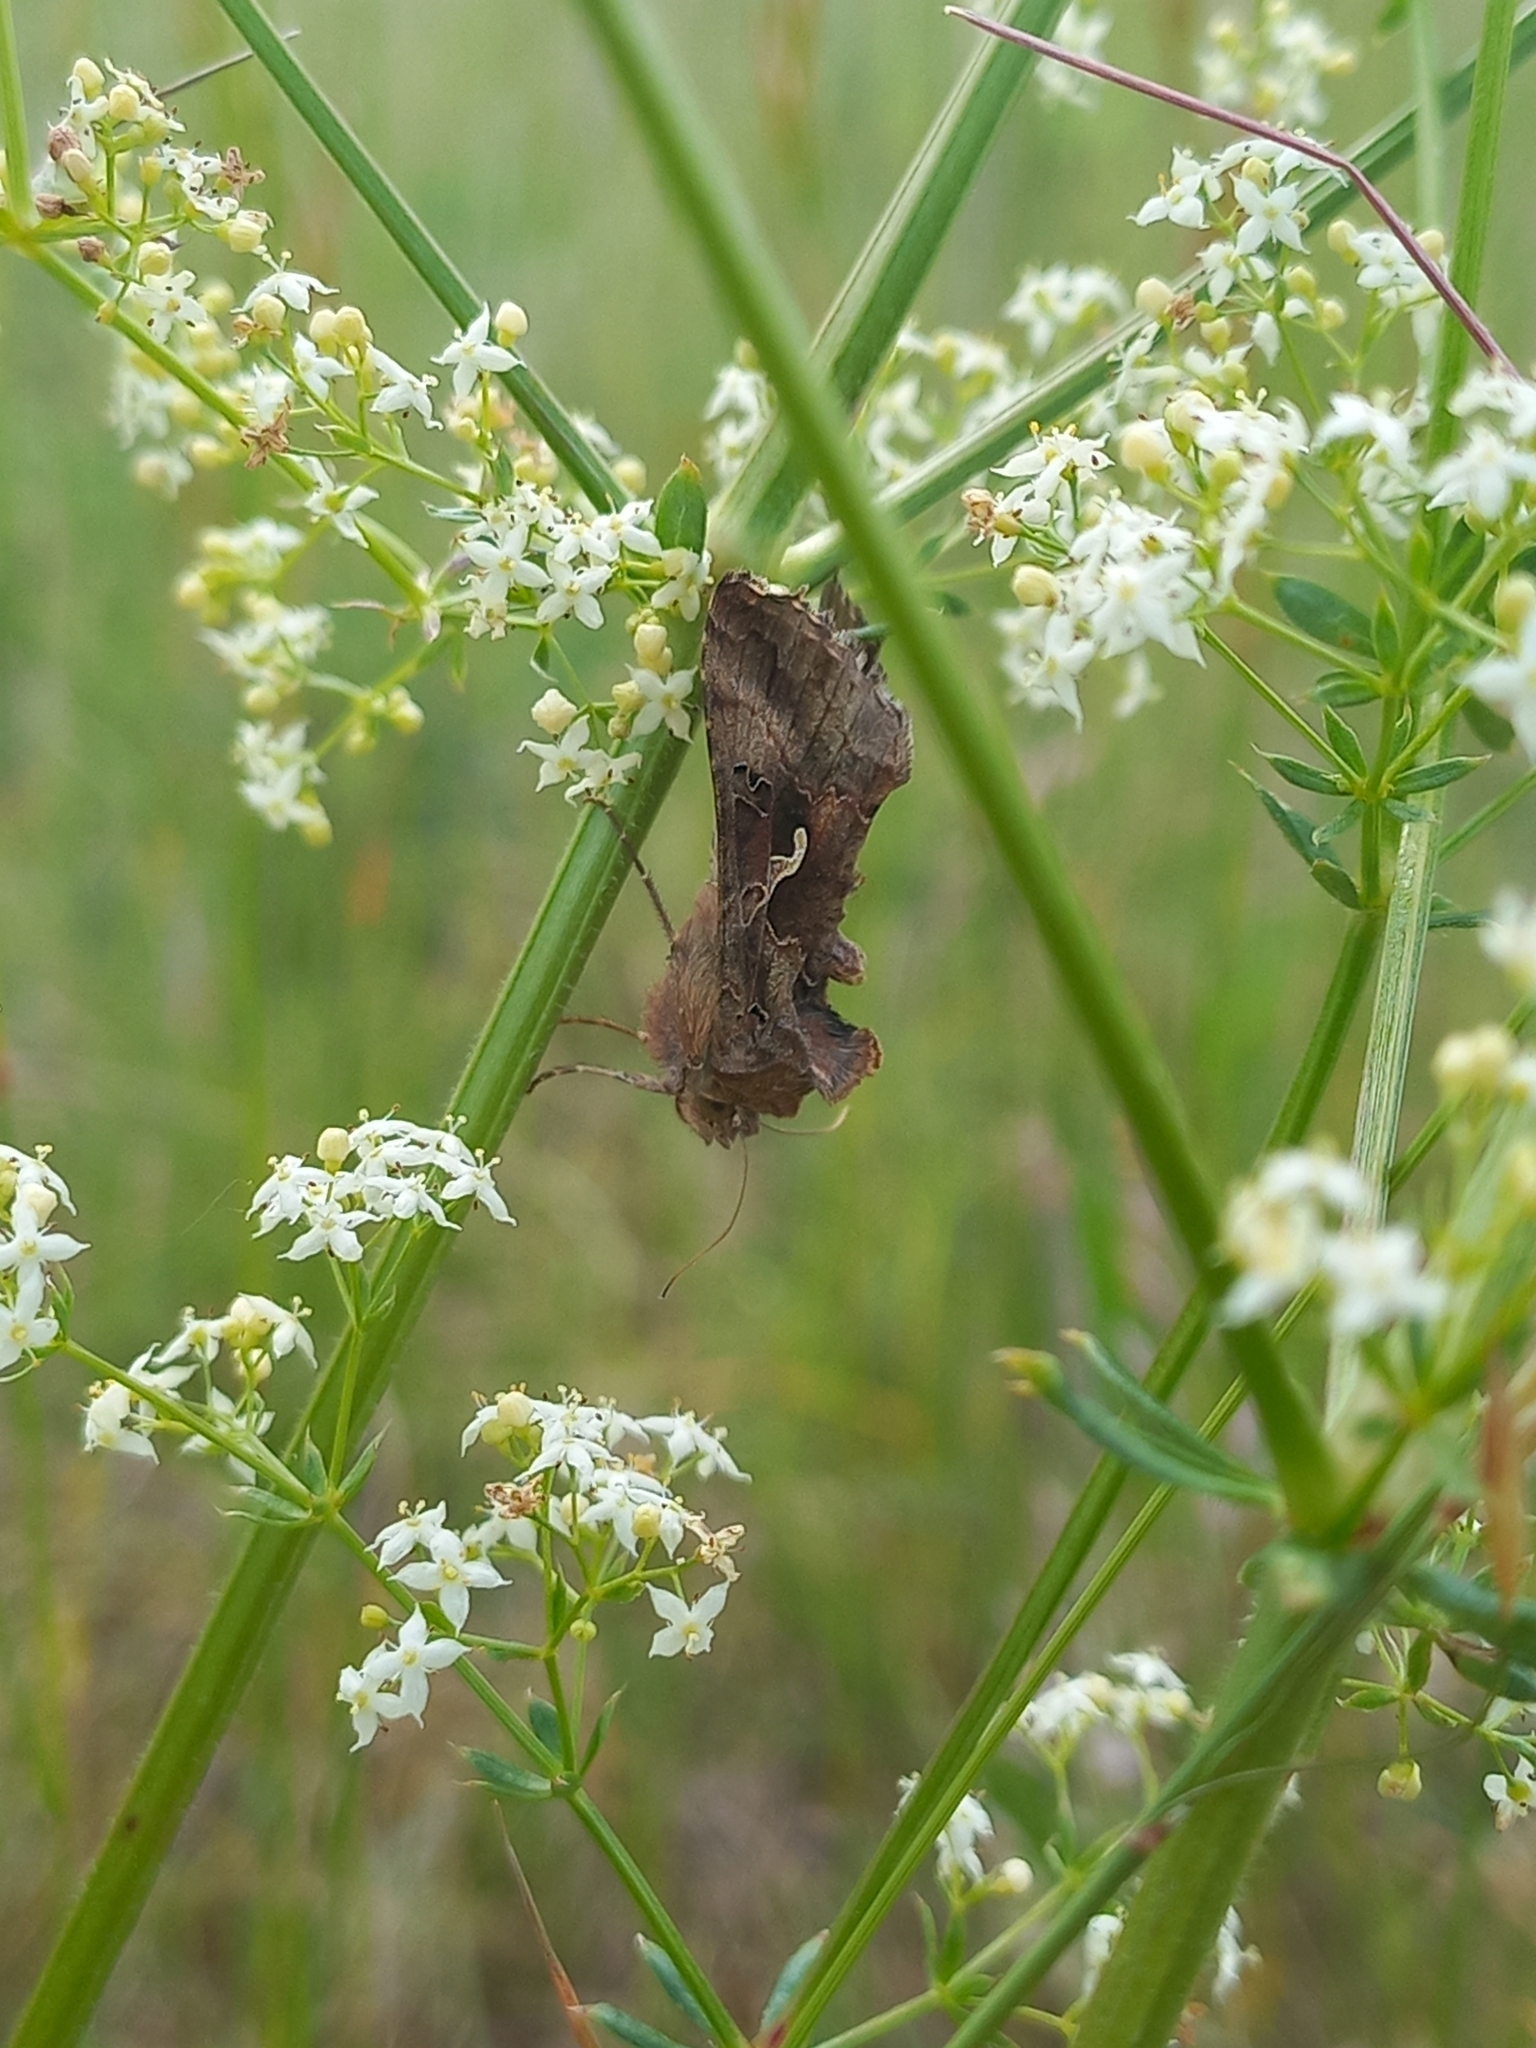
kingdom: Animalia
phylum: Arthropoda
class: Insecta
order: Lepidoptera
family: Noctuidae
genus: Autographa
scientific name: Autographa gamma
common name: Silver y
